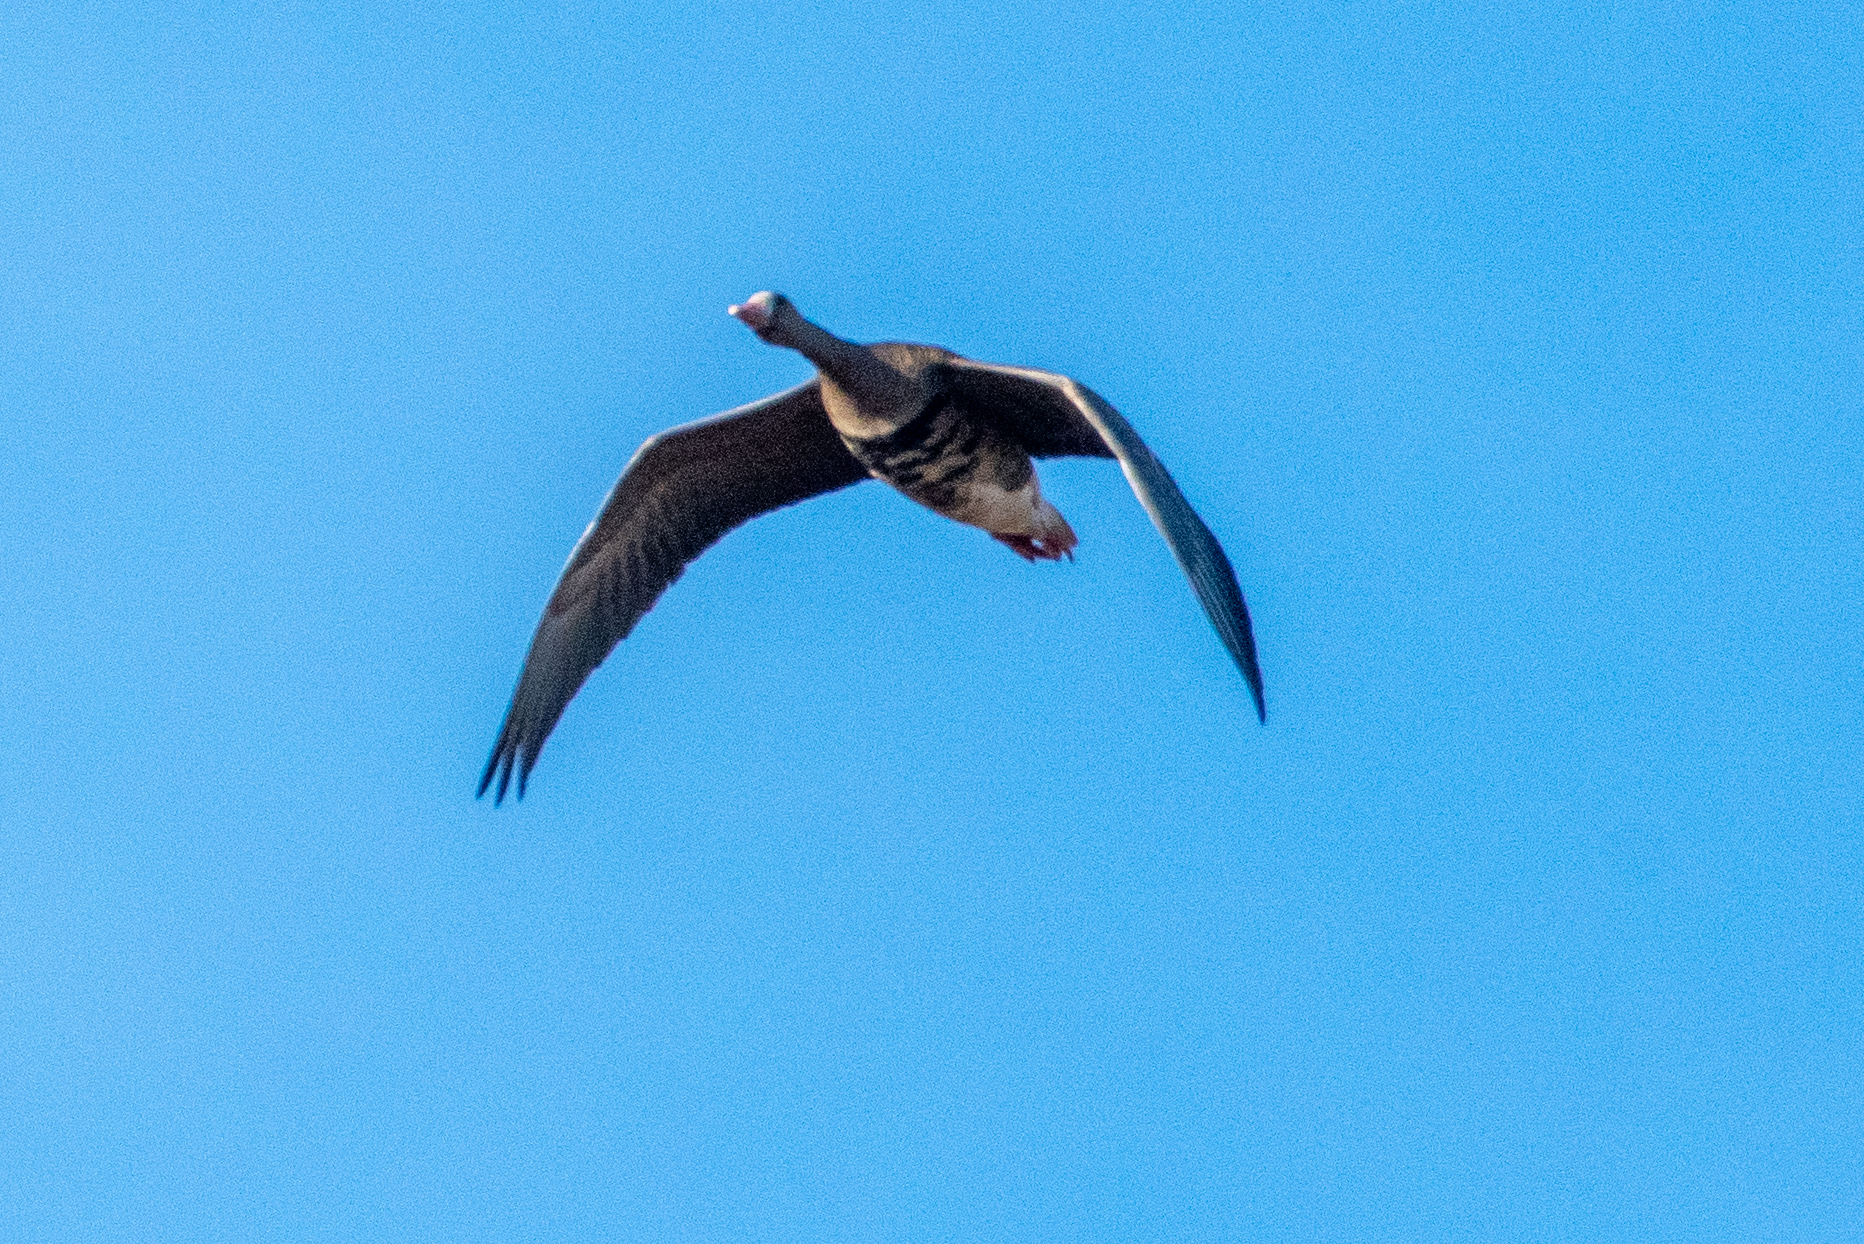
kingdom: Animalia
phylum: Chordata
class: Aves
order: Anseriformes
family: Anatidae
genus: Anser
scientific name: Anser albifrons
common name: Greater white-fronted goose
